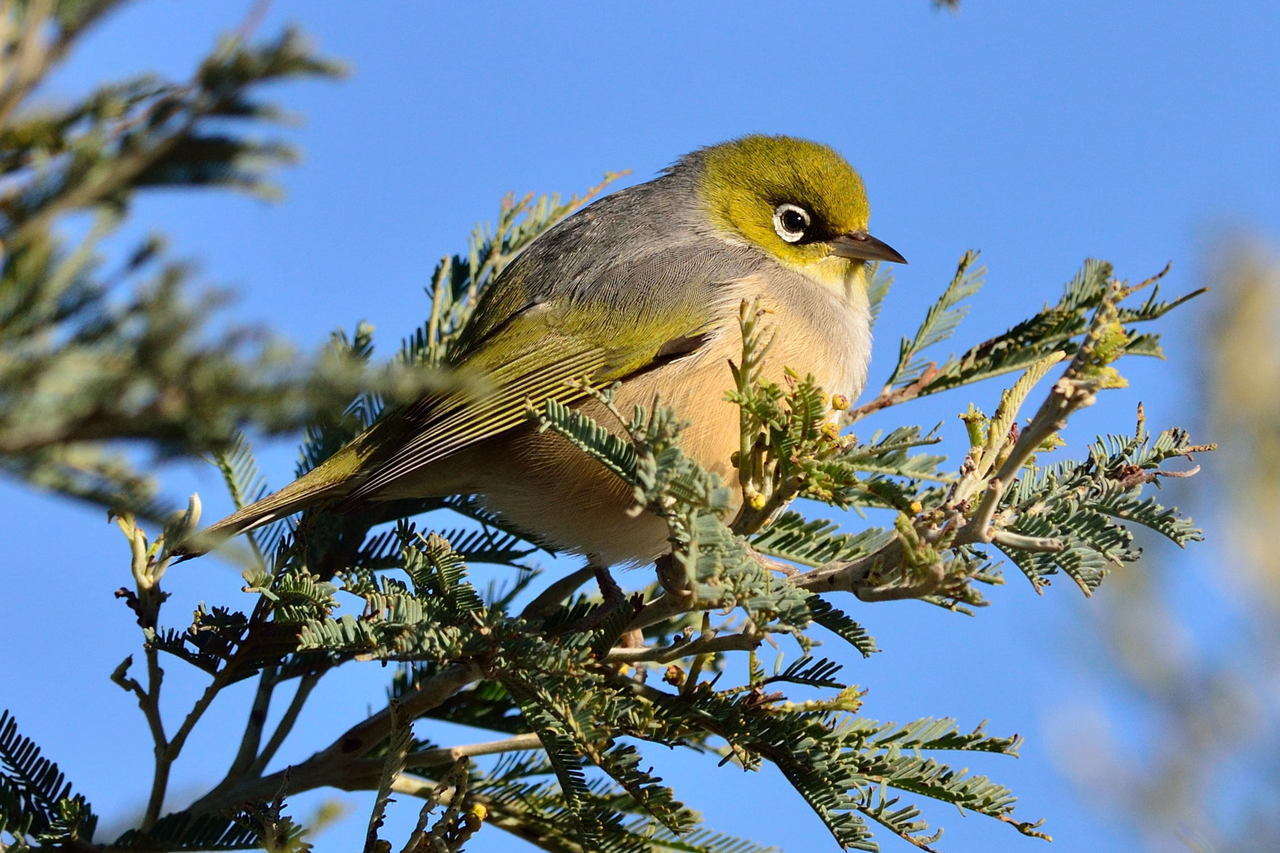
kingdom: Animalia
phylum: Chordata
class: Aves
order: Passeriformes
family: Zosteropidae
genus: Zosterops
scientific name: Zosterops lateralis
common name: Silvereye
